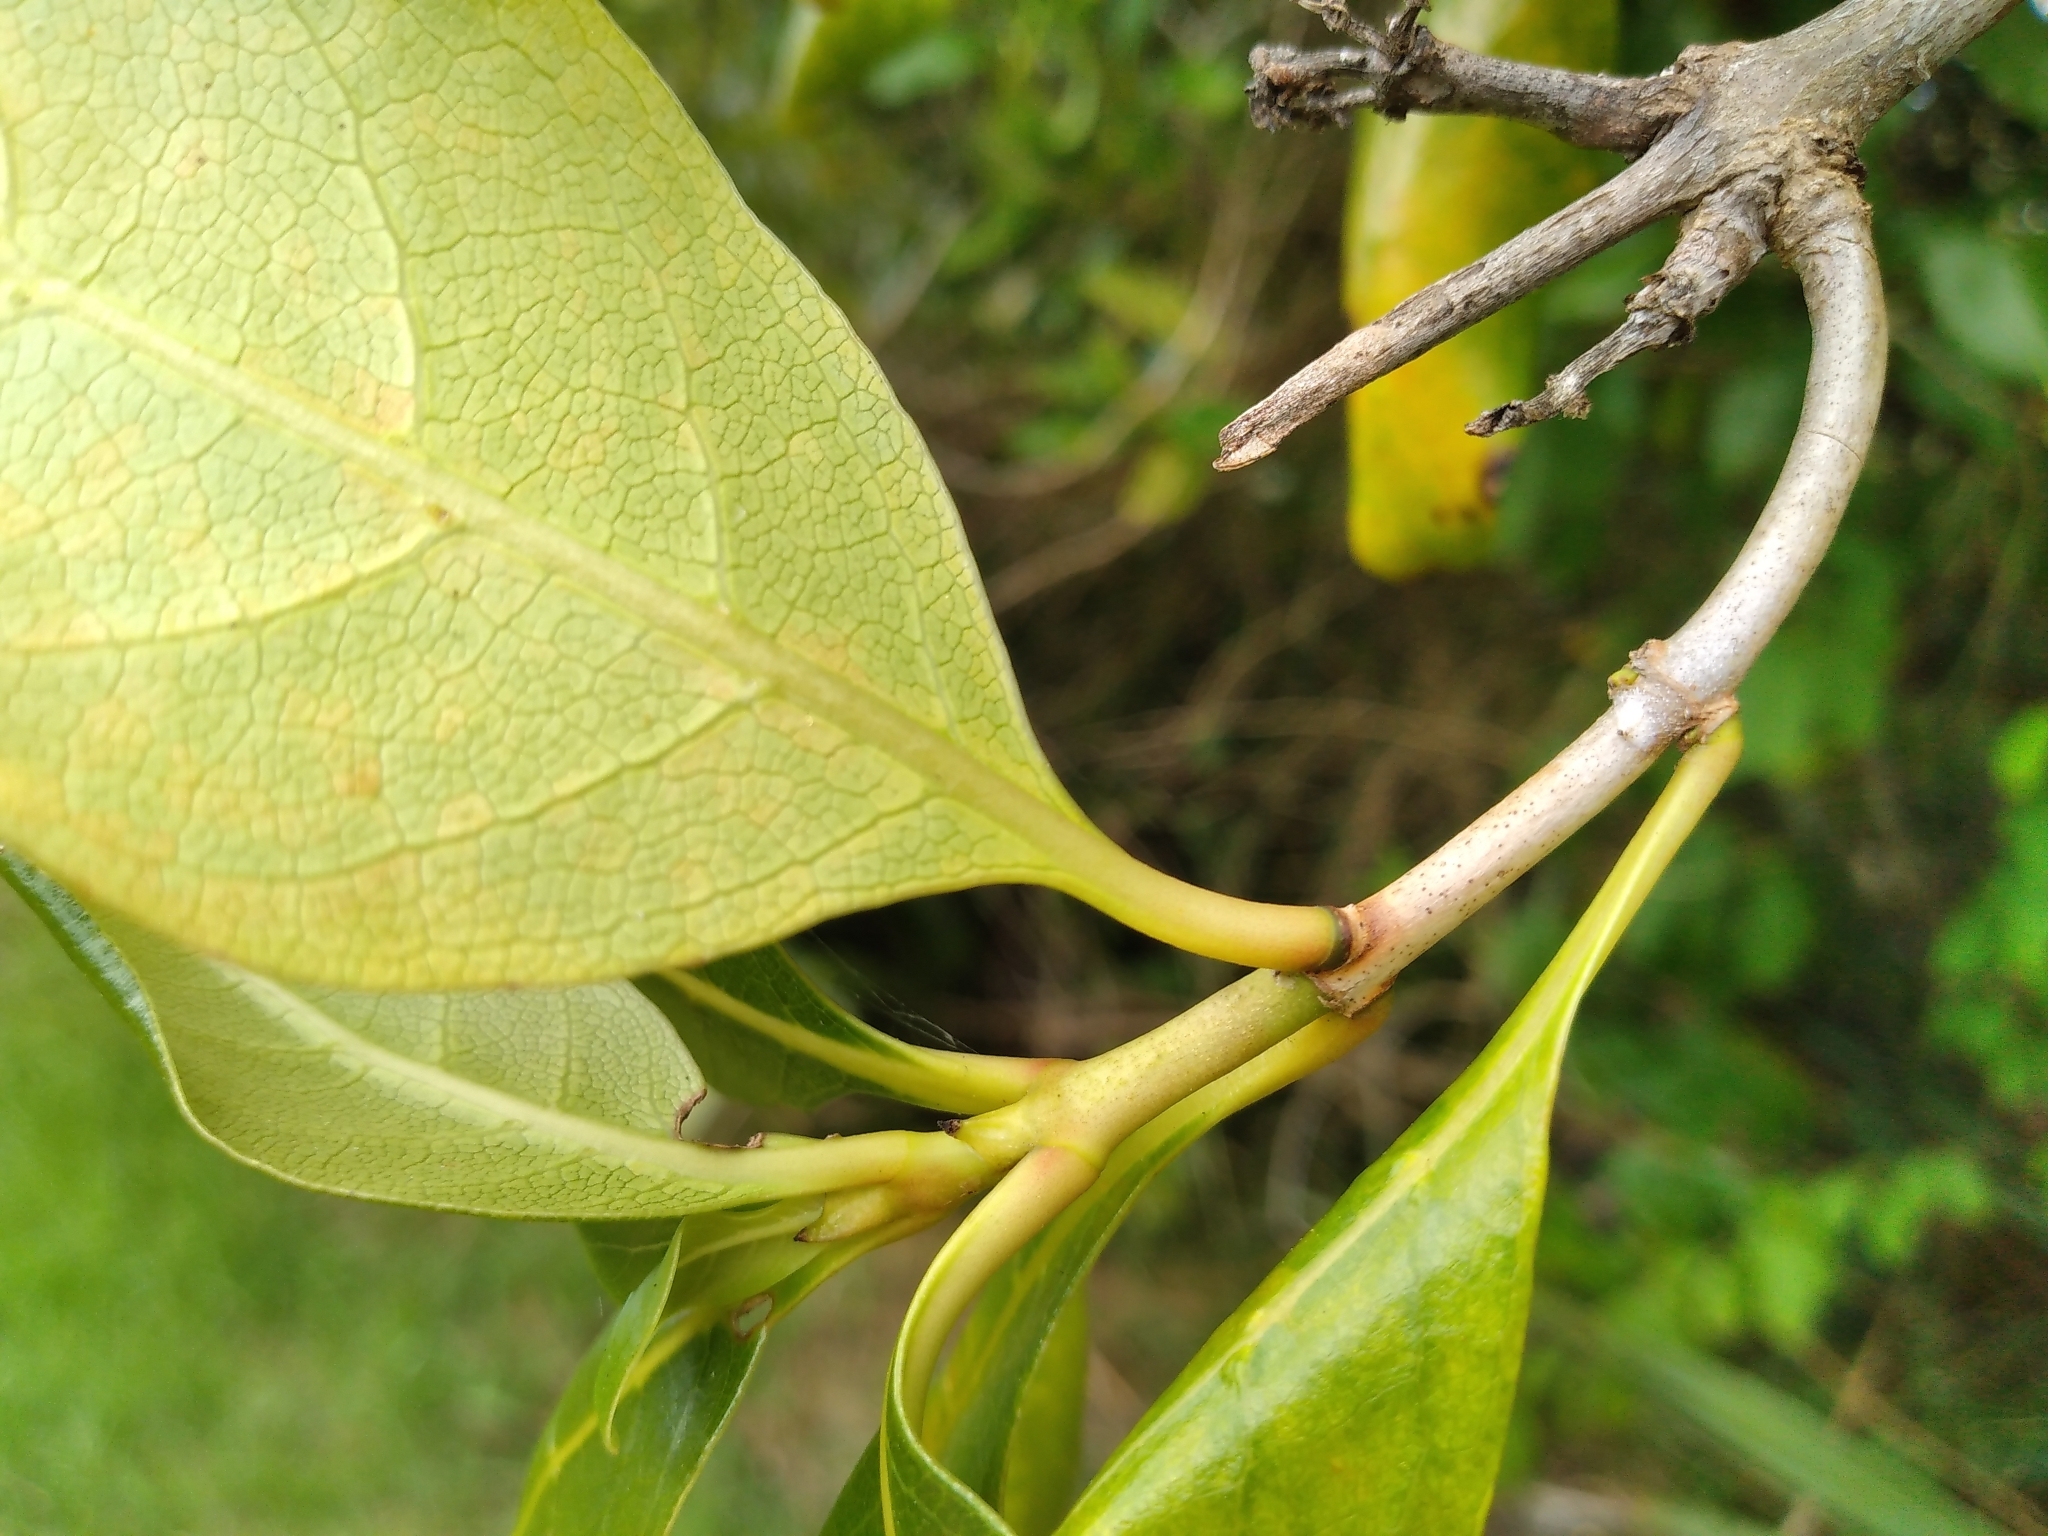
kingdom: Plantae
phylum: Tracheophyta
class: Magnoliopsida
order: Gentianales
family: Rubiaceae
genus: Coprosma
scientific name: Coprosma macrocarpa
